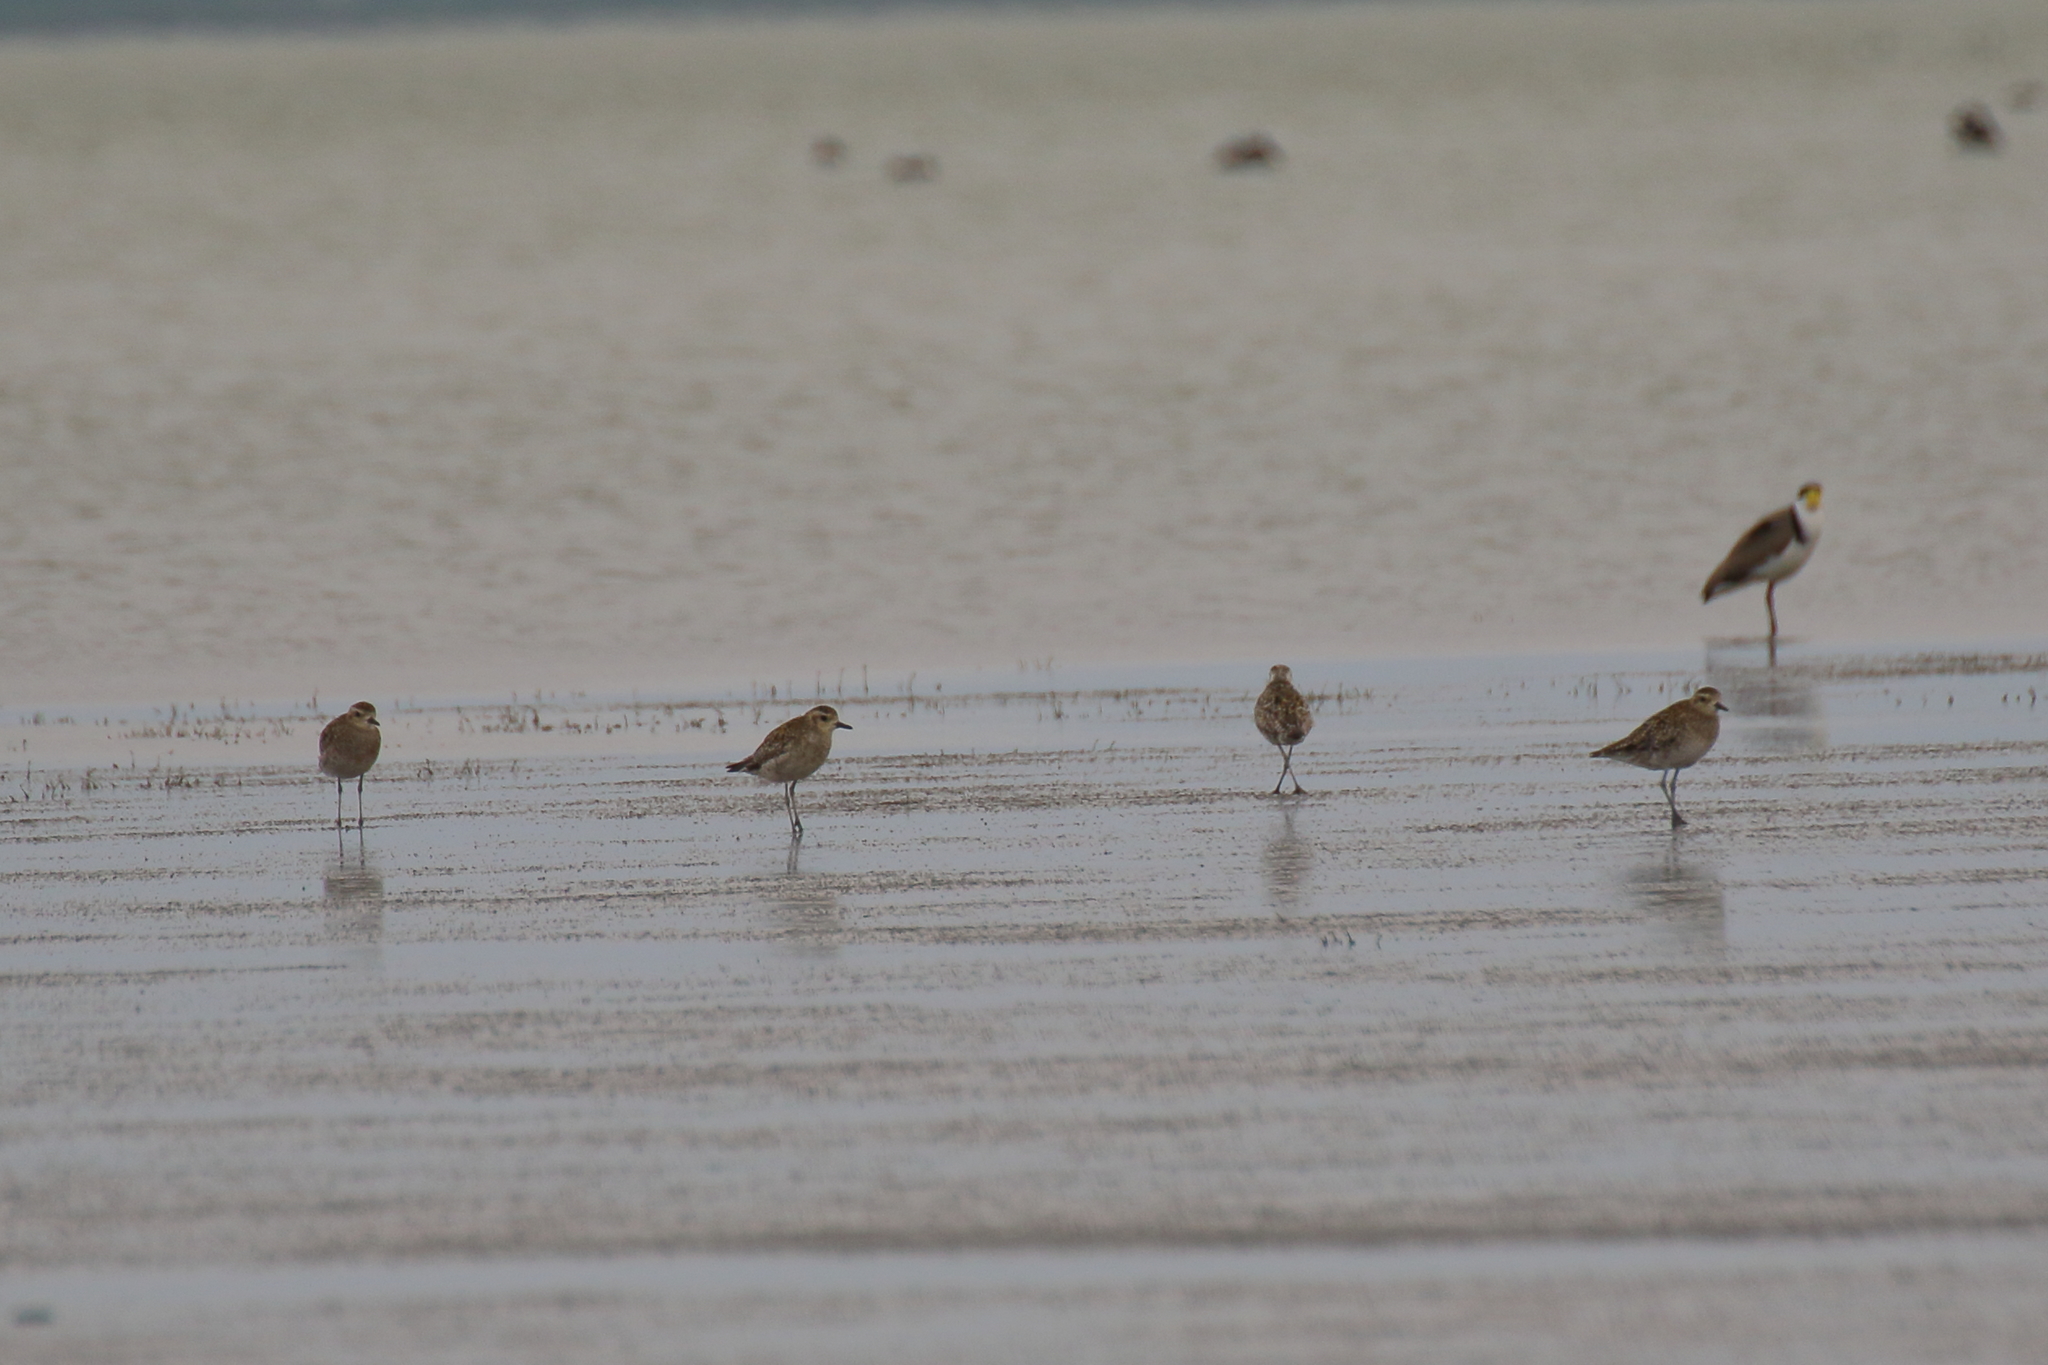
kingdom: Animalia
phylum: Chordata
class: Aves
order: Charadriiformes
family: Charadriidae
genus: Pluvialis
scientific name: Pluvialis fulva
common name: Pacific golden plover
